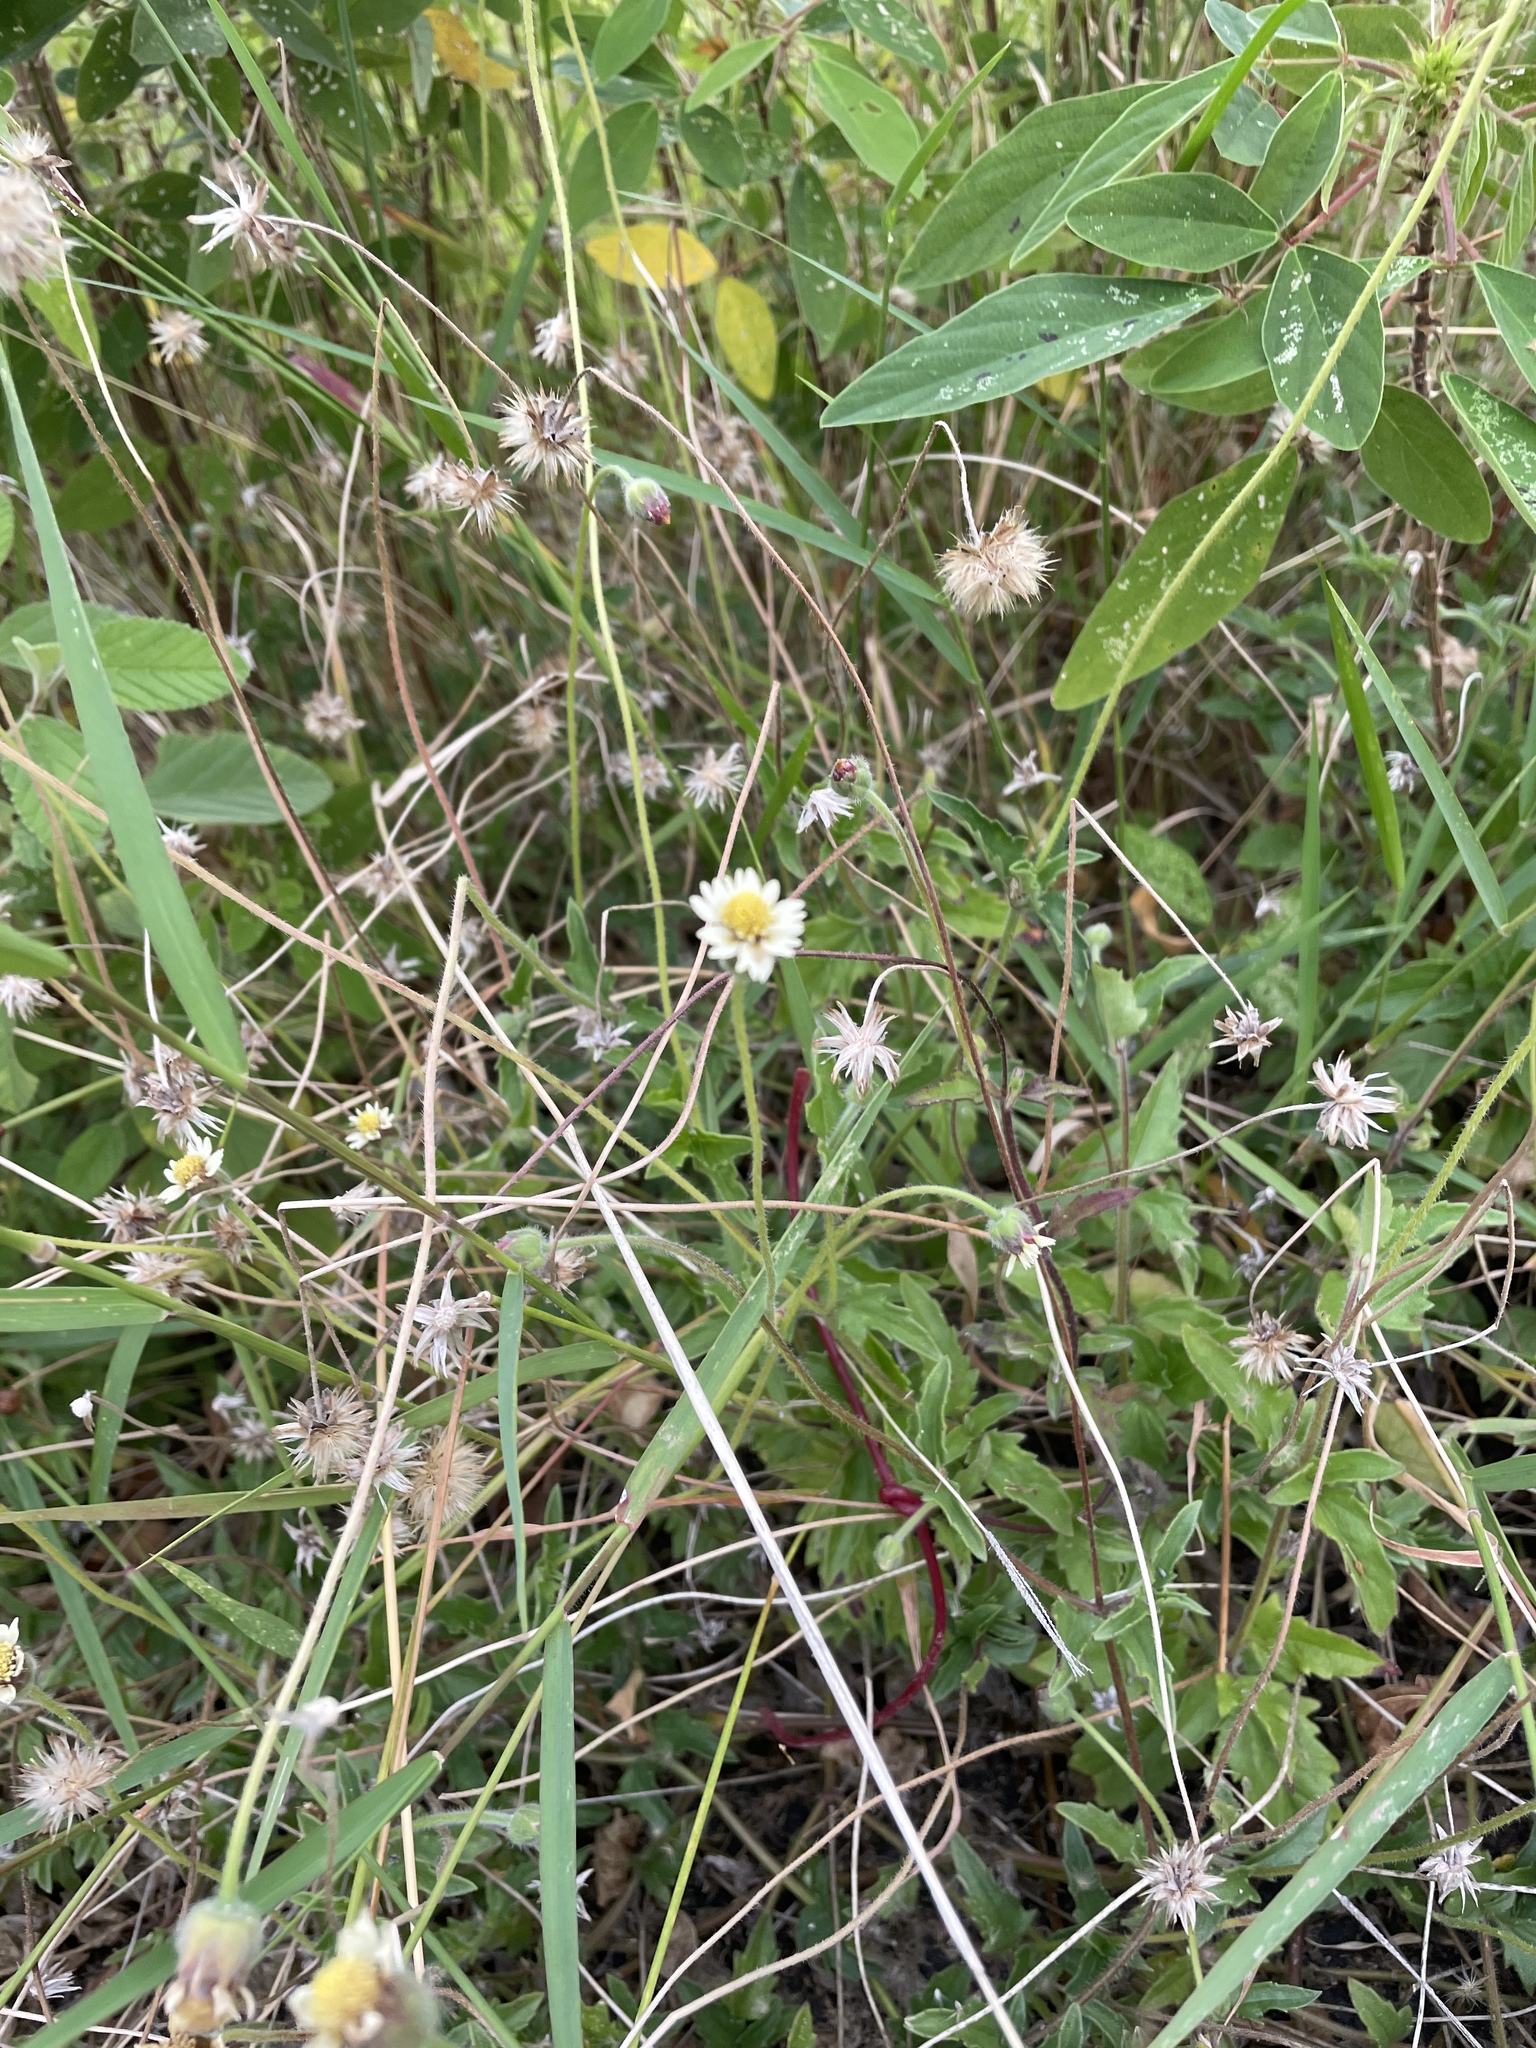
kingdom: Plantae
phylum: Tracheophyta
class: Magnoliopsida
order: Asterales
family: Asteraceae
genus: Tridax
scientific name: Tridax procumbens
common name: Coatbuttons
